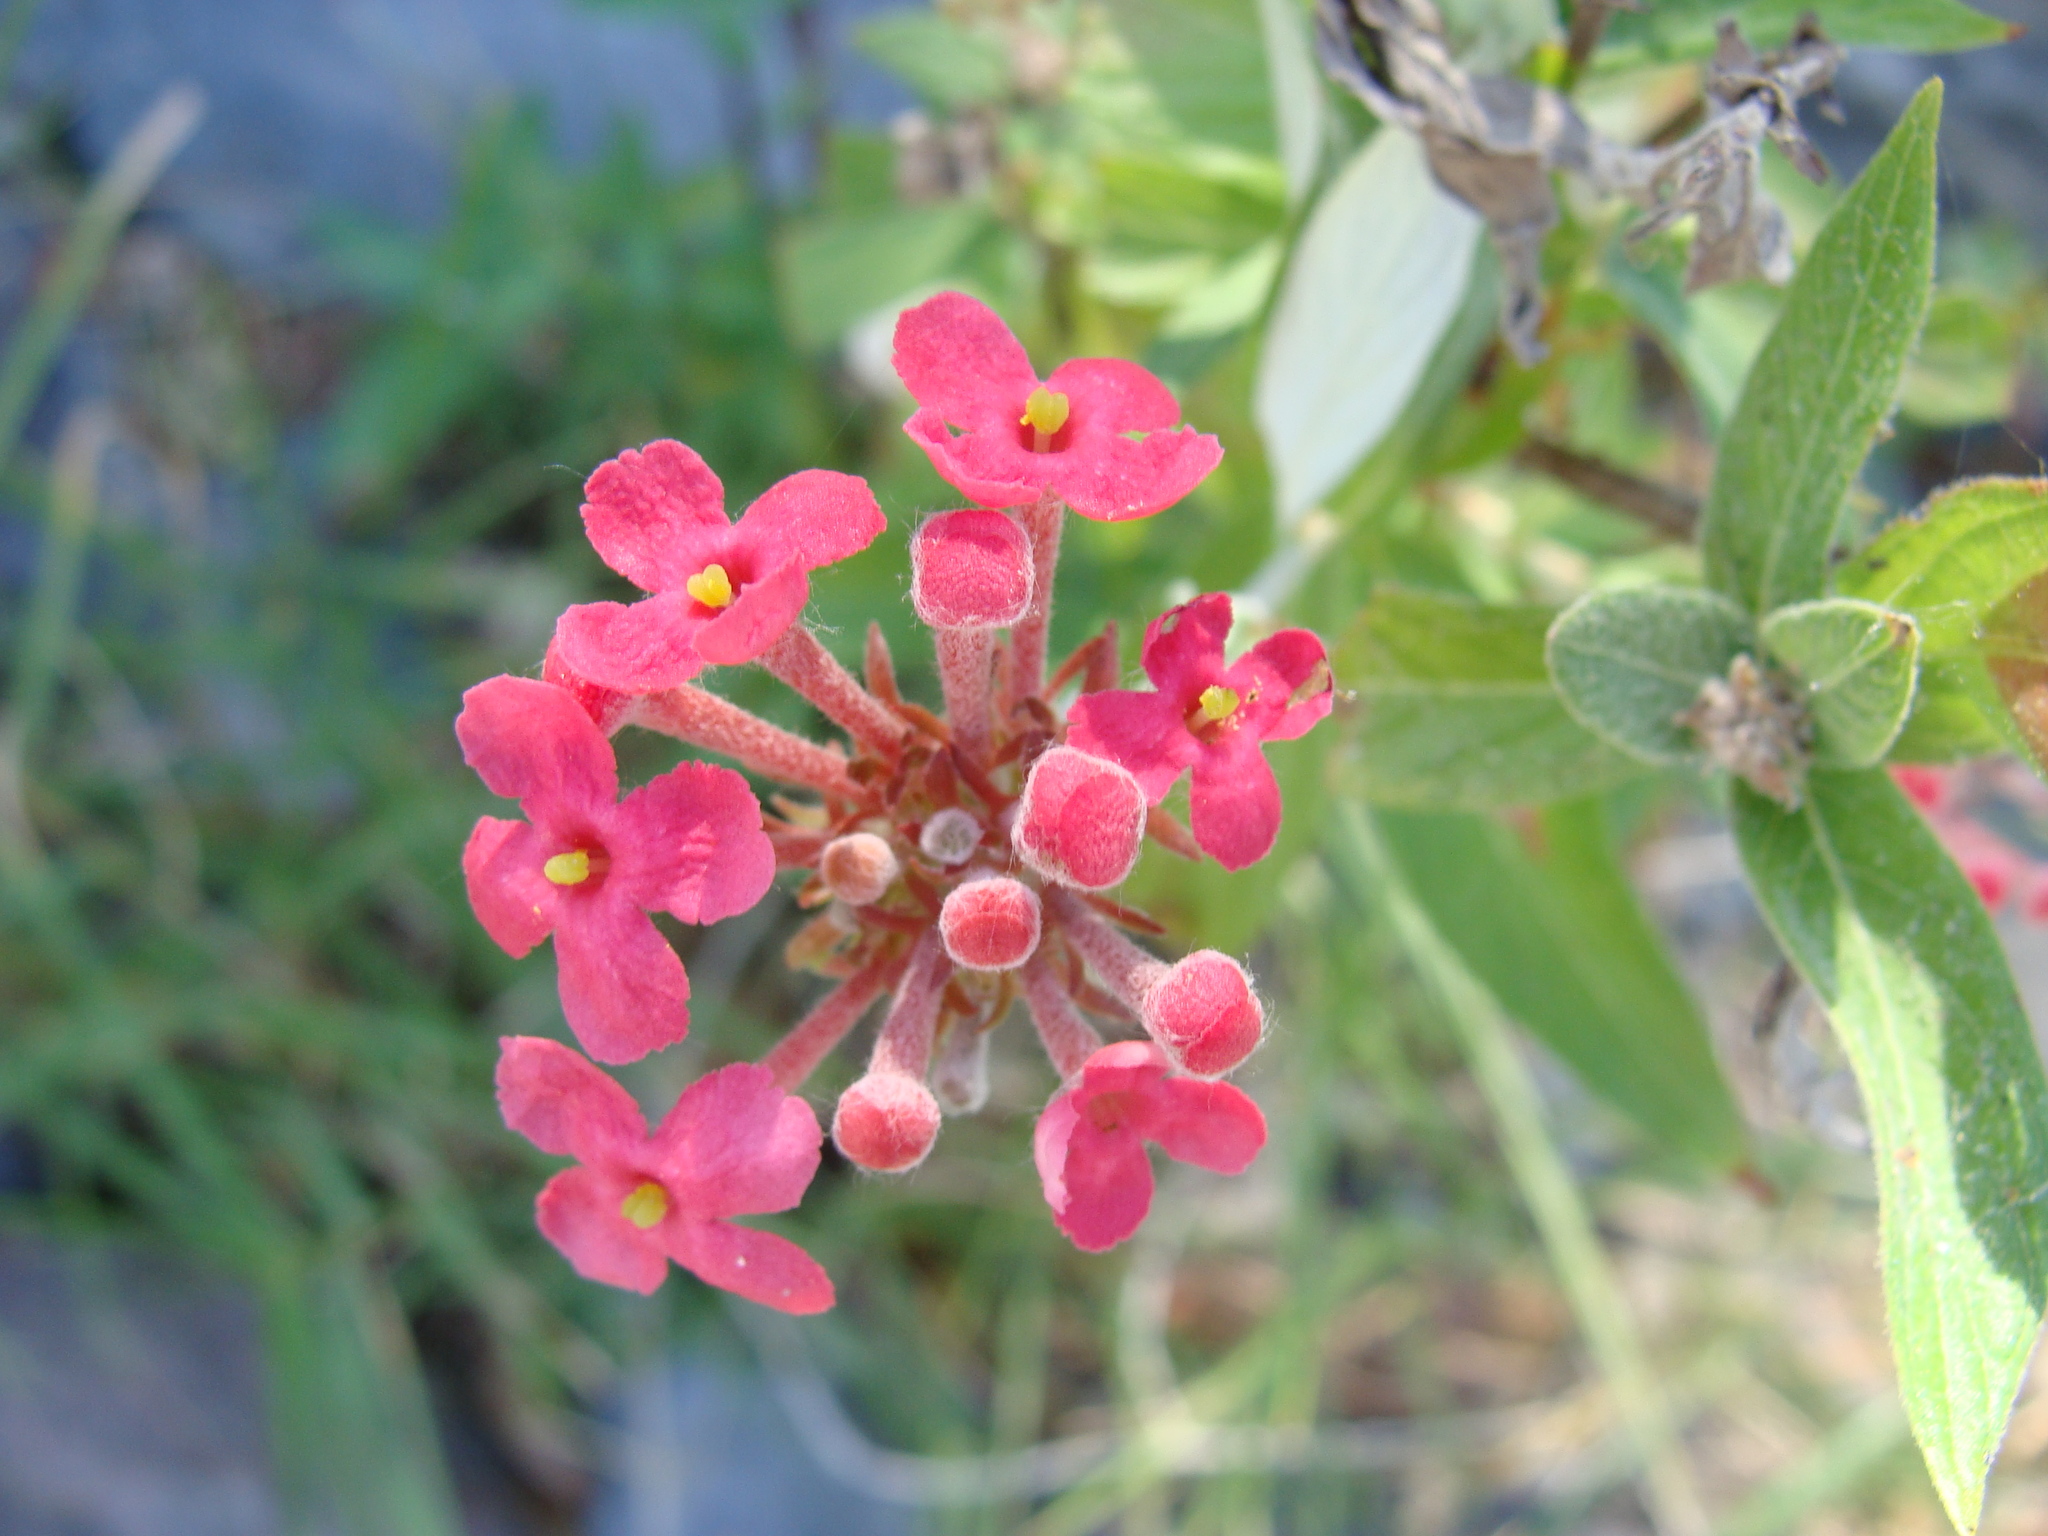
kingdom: Plantae
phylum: Tracheophyta
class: Magnoliopsida
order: Gentianales
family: Rubiaceae
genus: Arachnothryx
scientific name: Arachnothryx leucophylla
